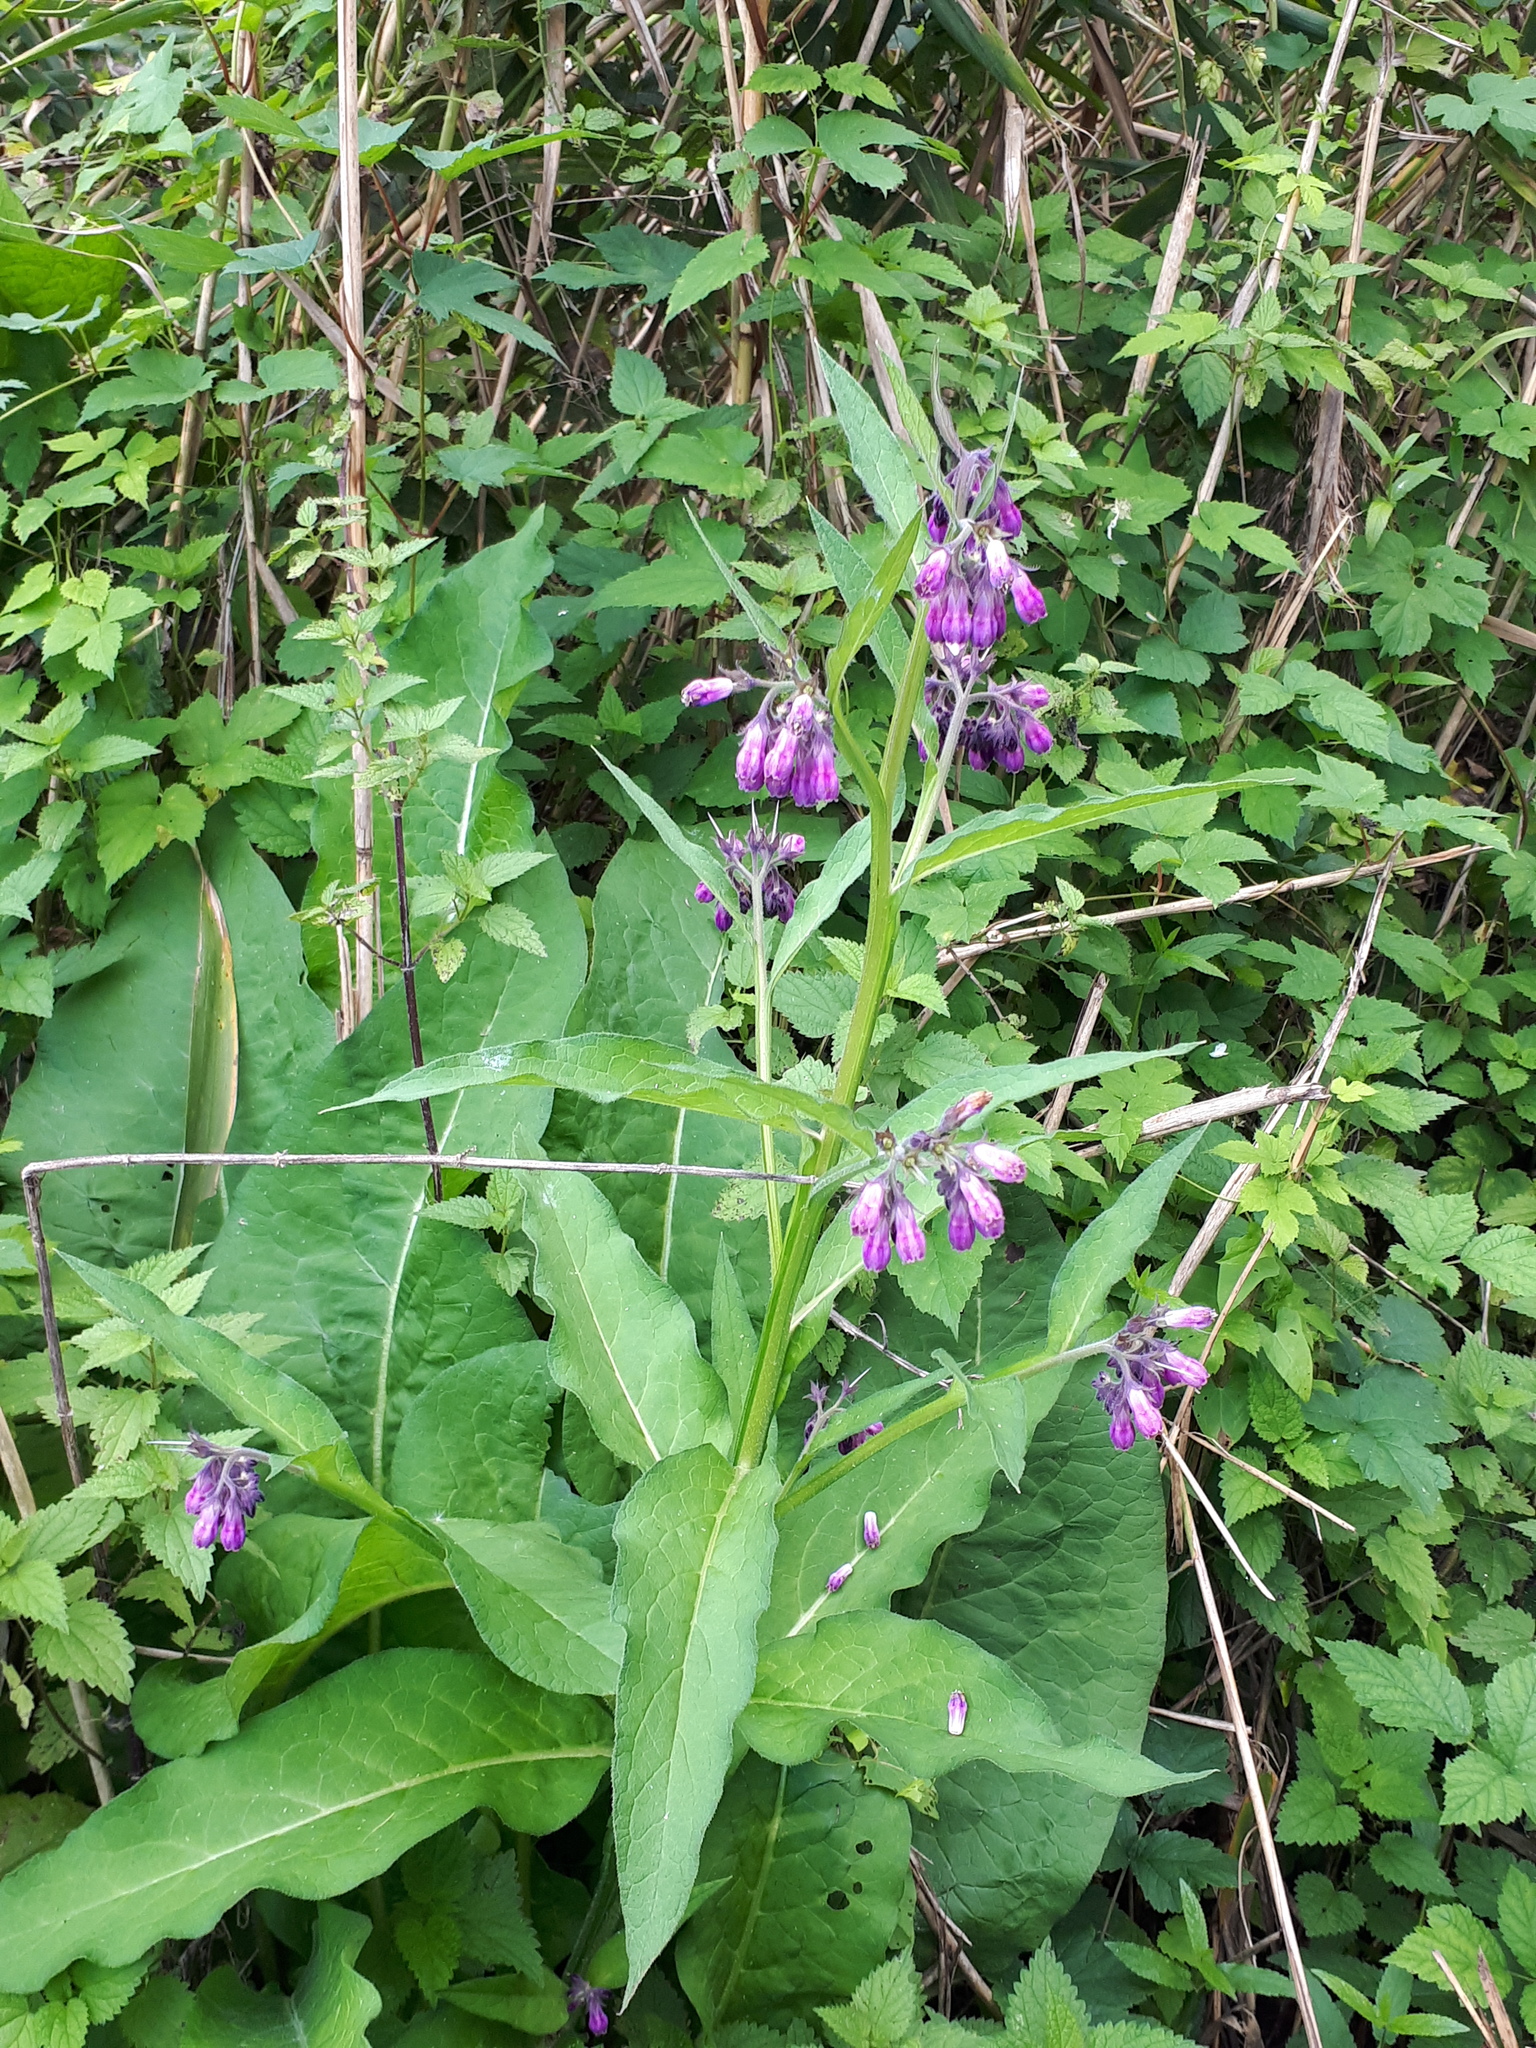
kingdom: Plantae
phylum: Tracheophyta
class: Magnoliopsida
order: Boraginales
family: Boraginaceae
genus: Symphytum
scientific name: Symphytum officinale
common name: Common comfrey
